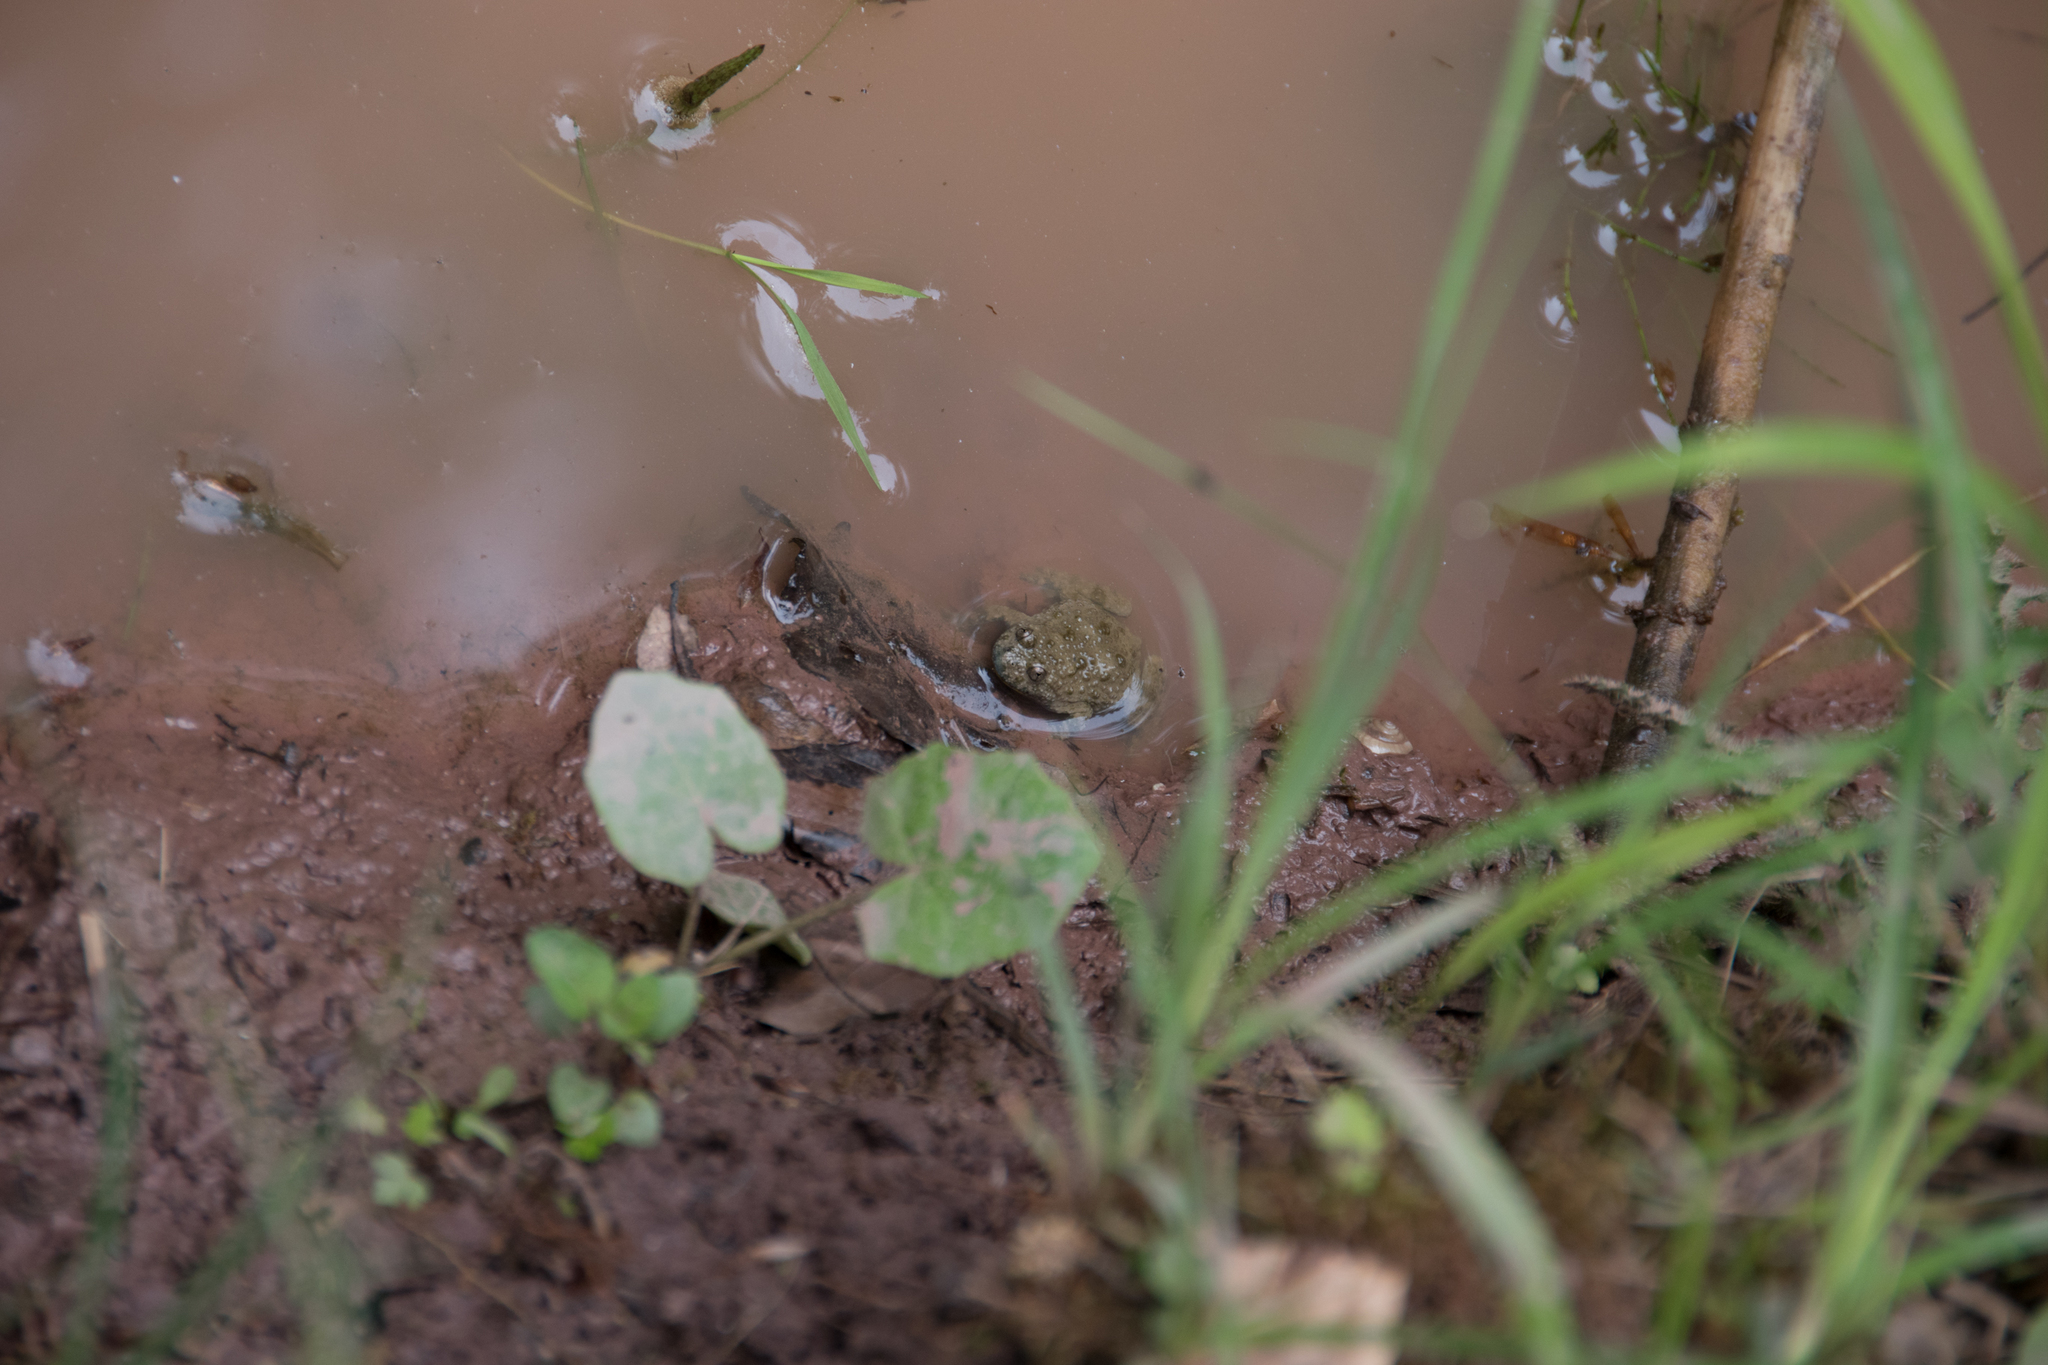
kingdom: Animalia
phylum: Chordata
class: Amphibia
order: Anura
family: Bombinatoridae
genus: Bombina
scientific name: Bombina variegata
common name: Yellow-bellied toad
